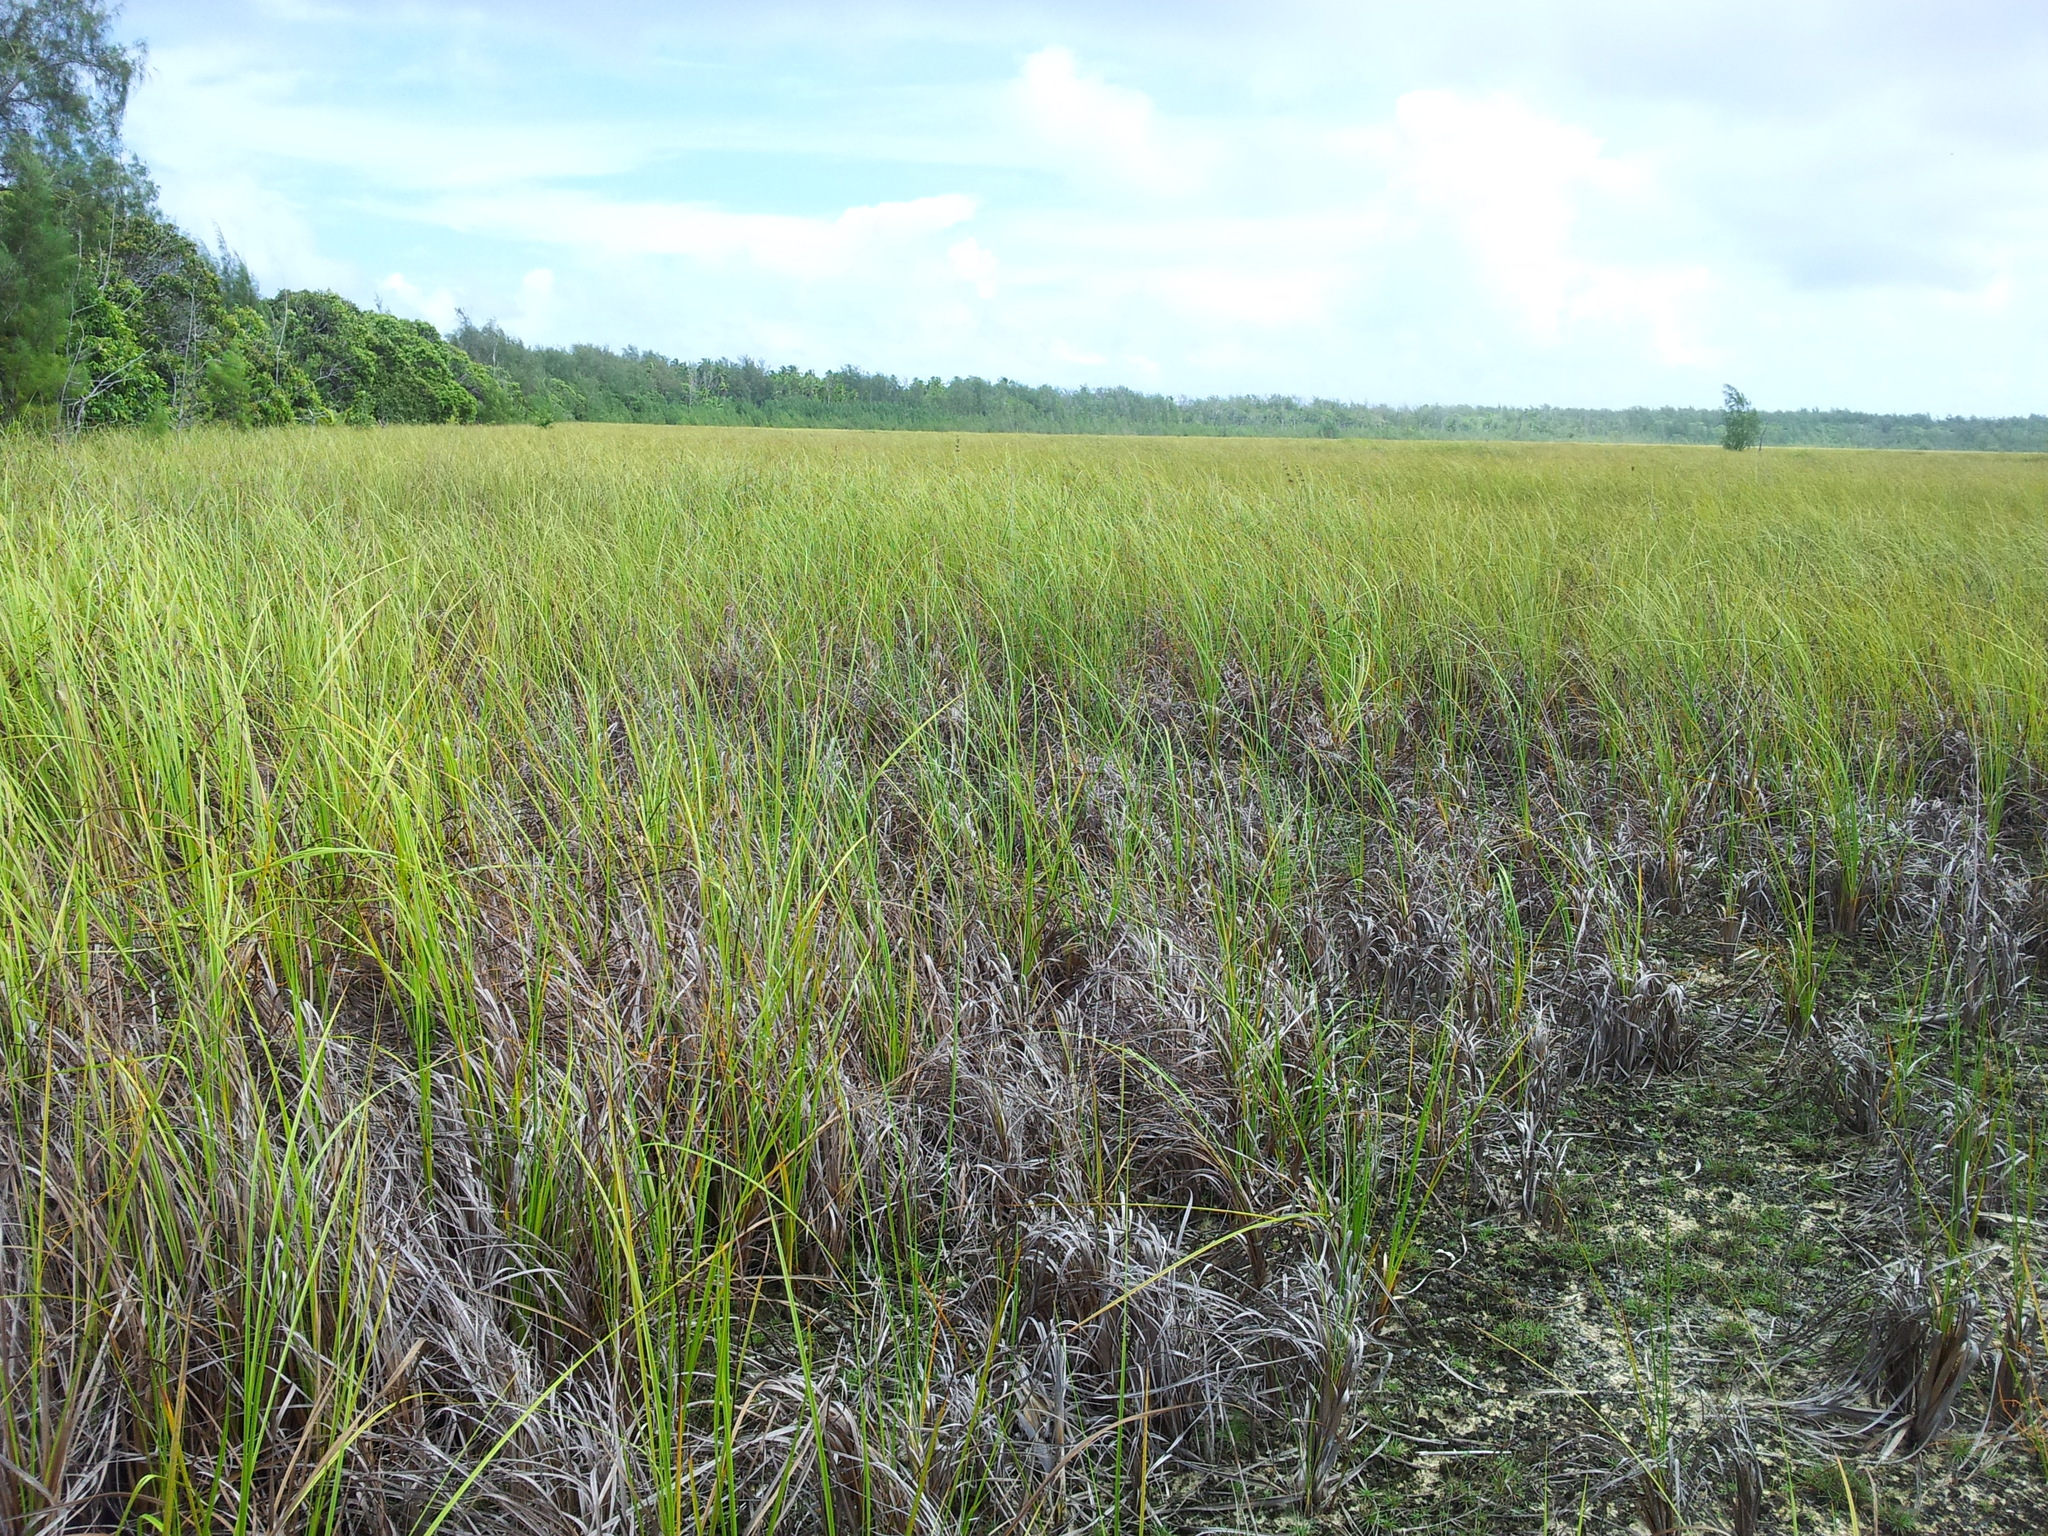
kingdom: Plantae
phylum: Tracheophyta
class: Liliopsida
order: Poales
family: Cyperaceae
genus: Cladium
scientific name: Cladium mariscus
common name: Great fen-sedge
